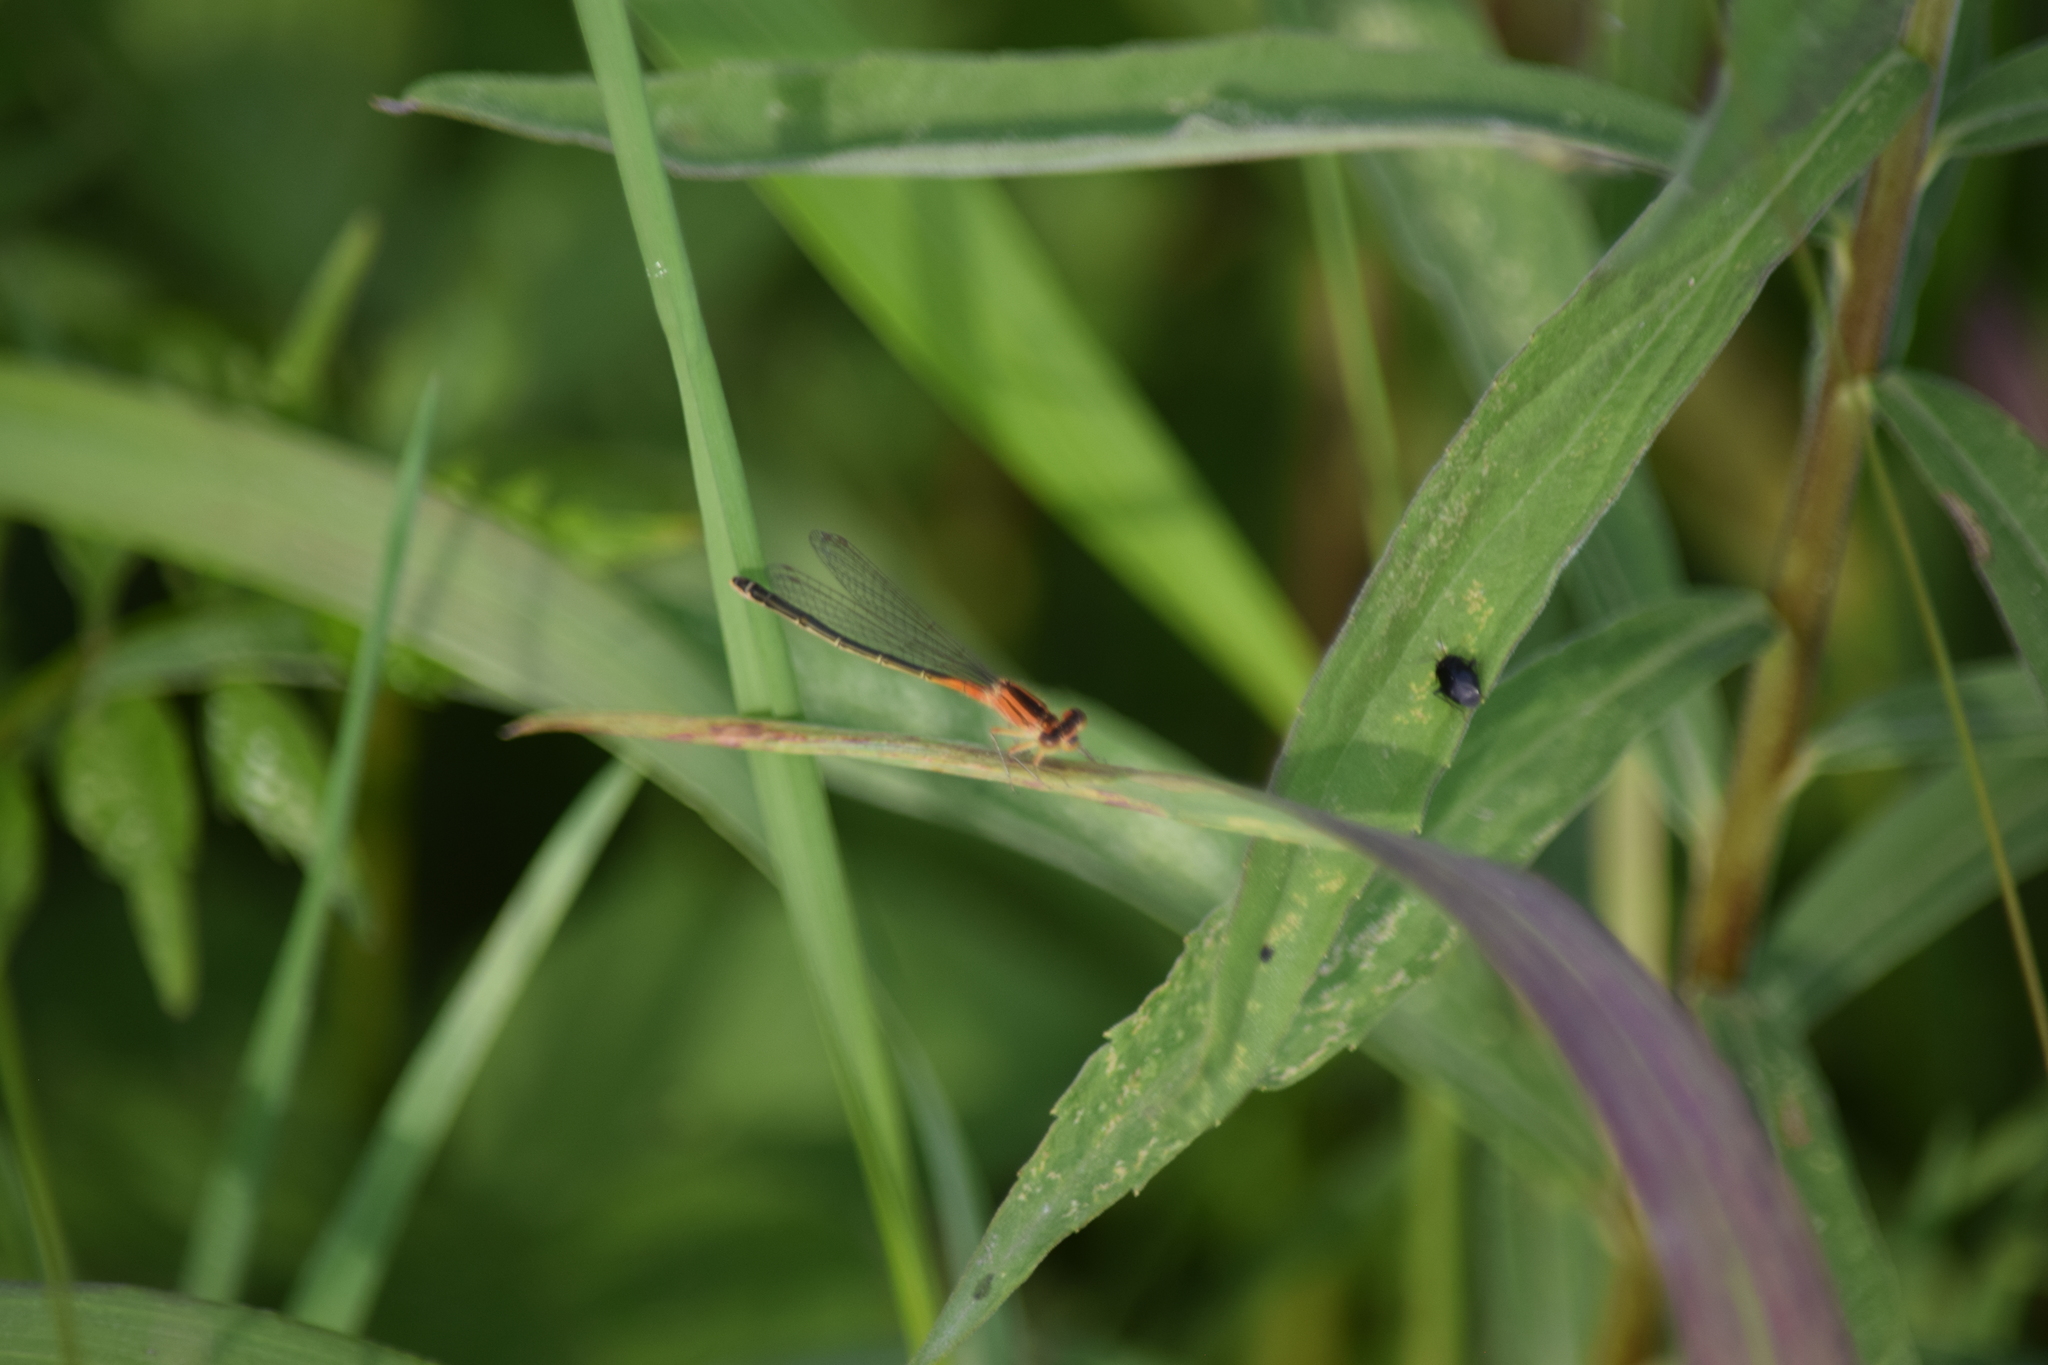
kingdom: Animalia
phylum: Arthropoda
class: Insecta
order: Odonata
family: Coenagrionidae
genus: Ischnura
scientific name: Ischnura verticalis
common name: Eastern forktail
